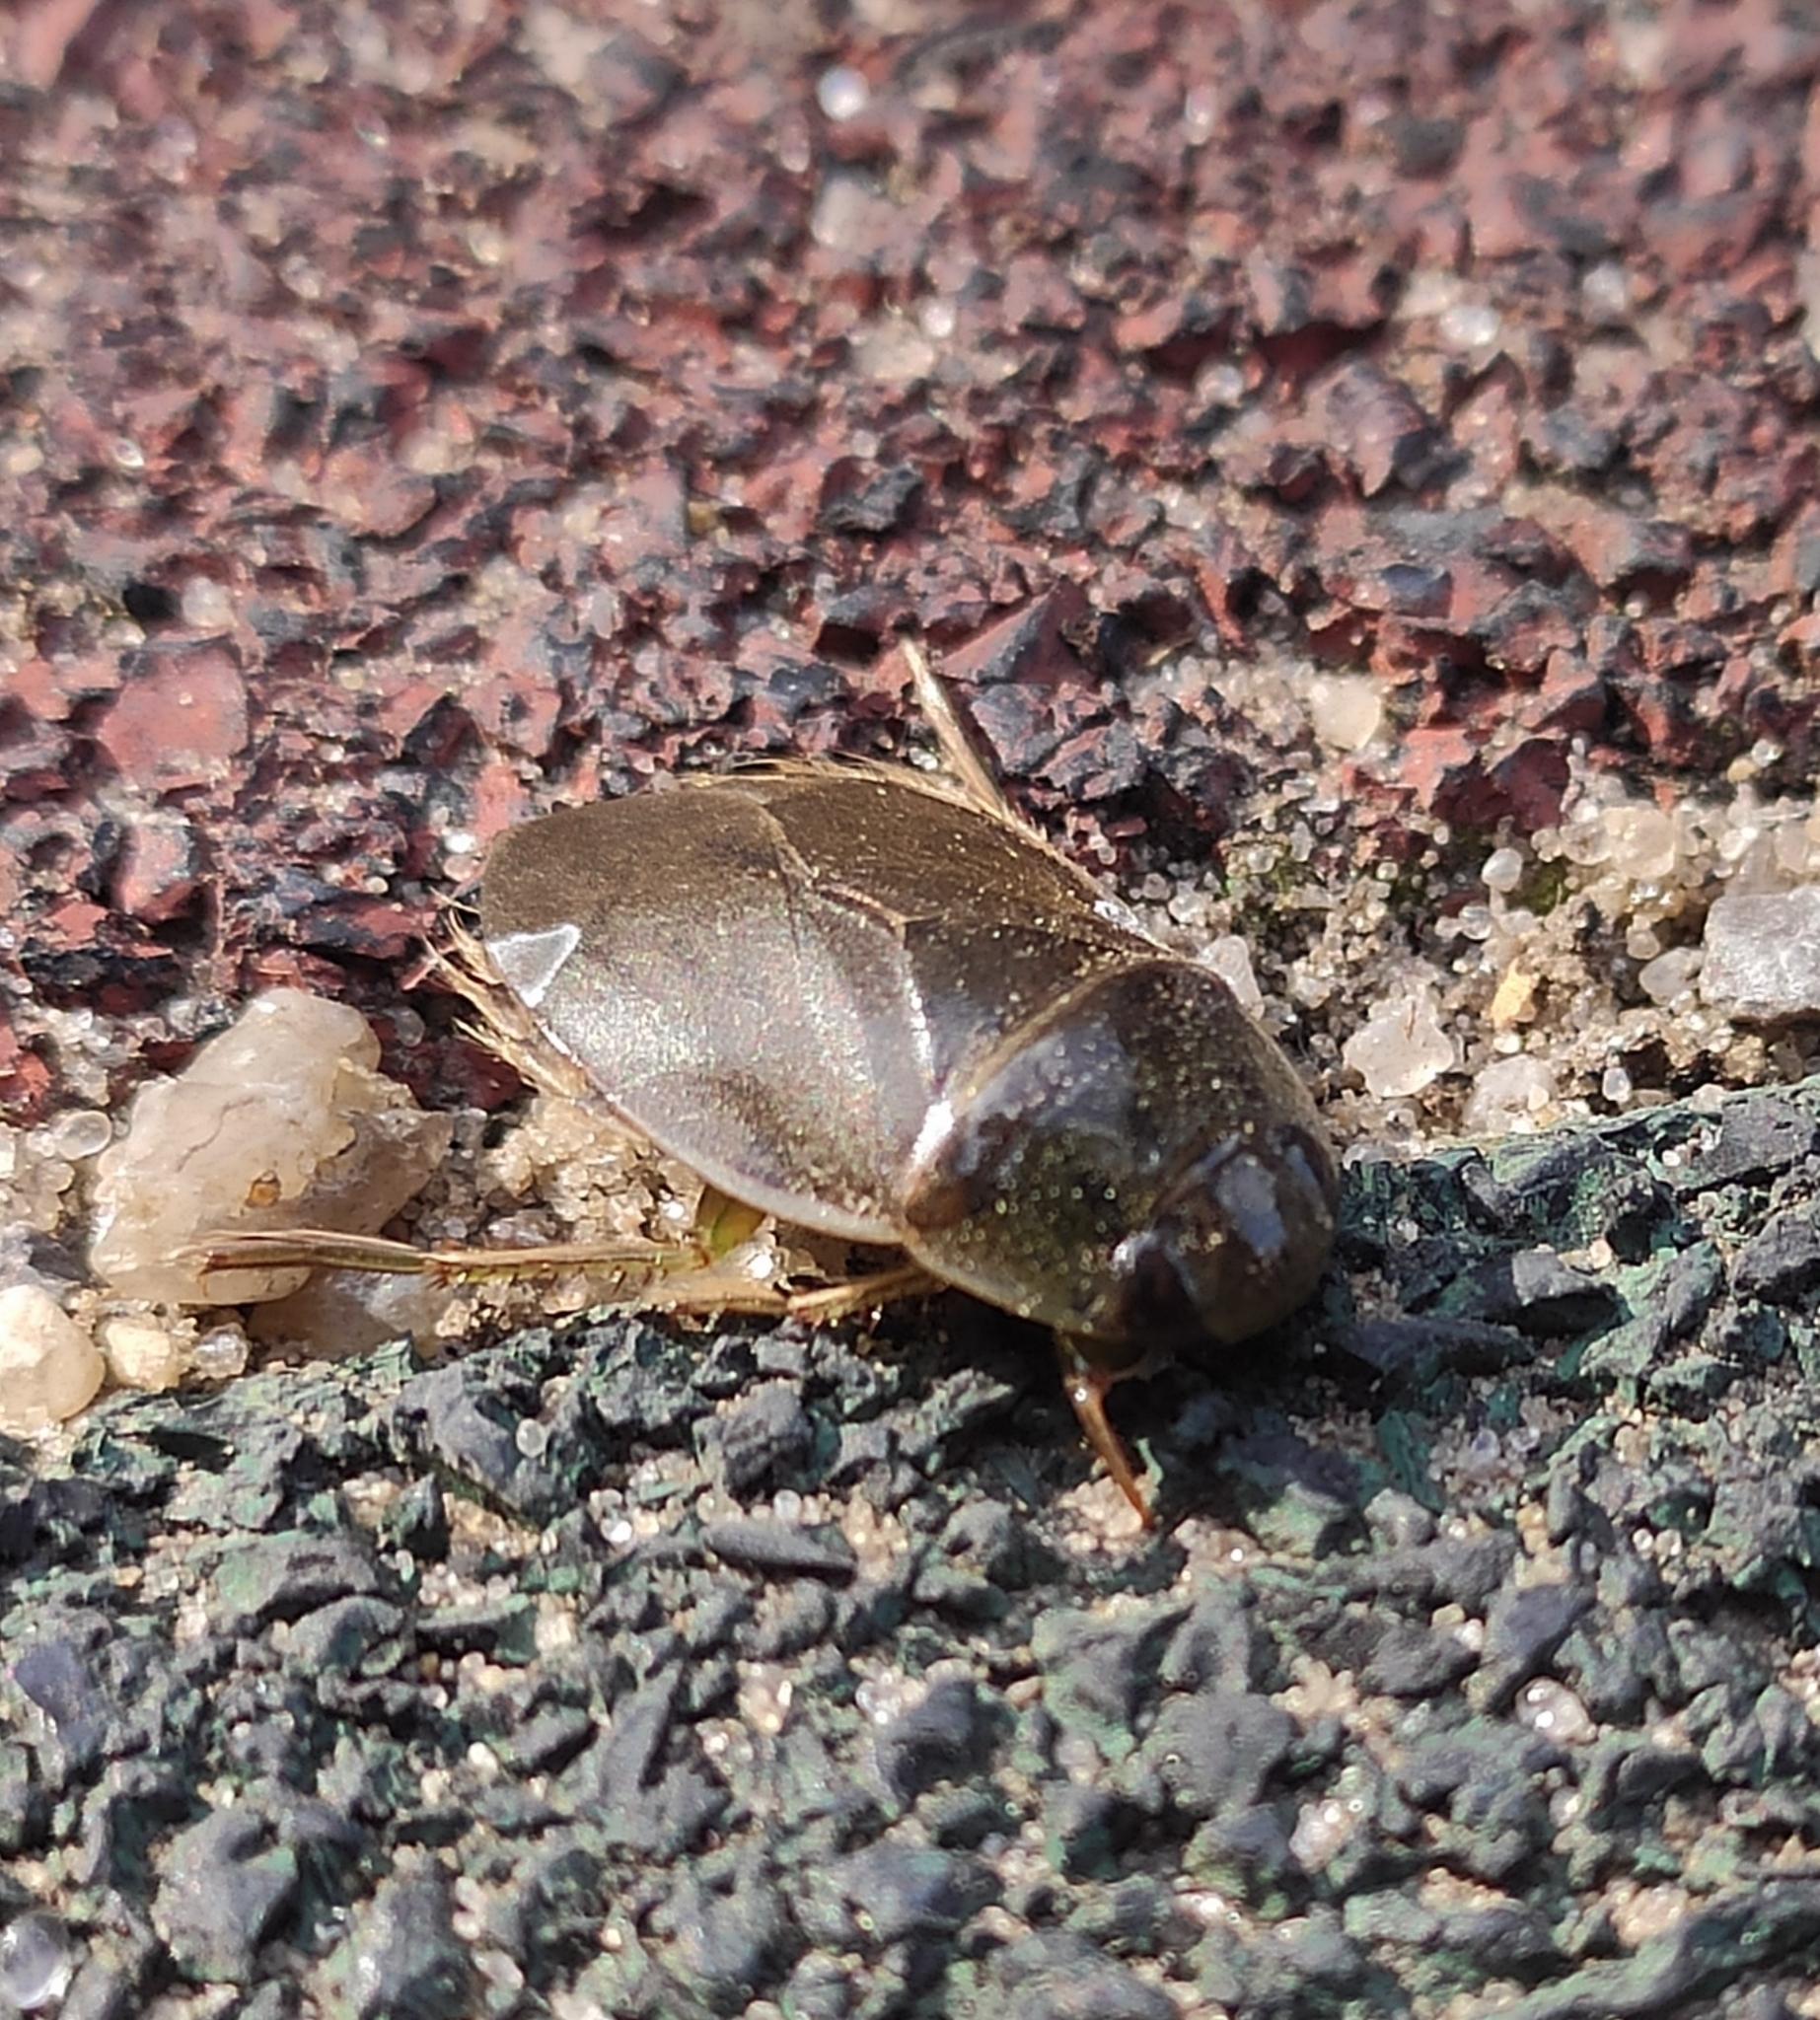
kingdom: Animalia
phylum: Arthropoda
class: Insecta
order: Hemiptera
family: Naucoridae
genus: Ilyocoris
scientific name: Ilyocoris cimicoides
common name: Saucer bugs
